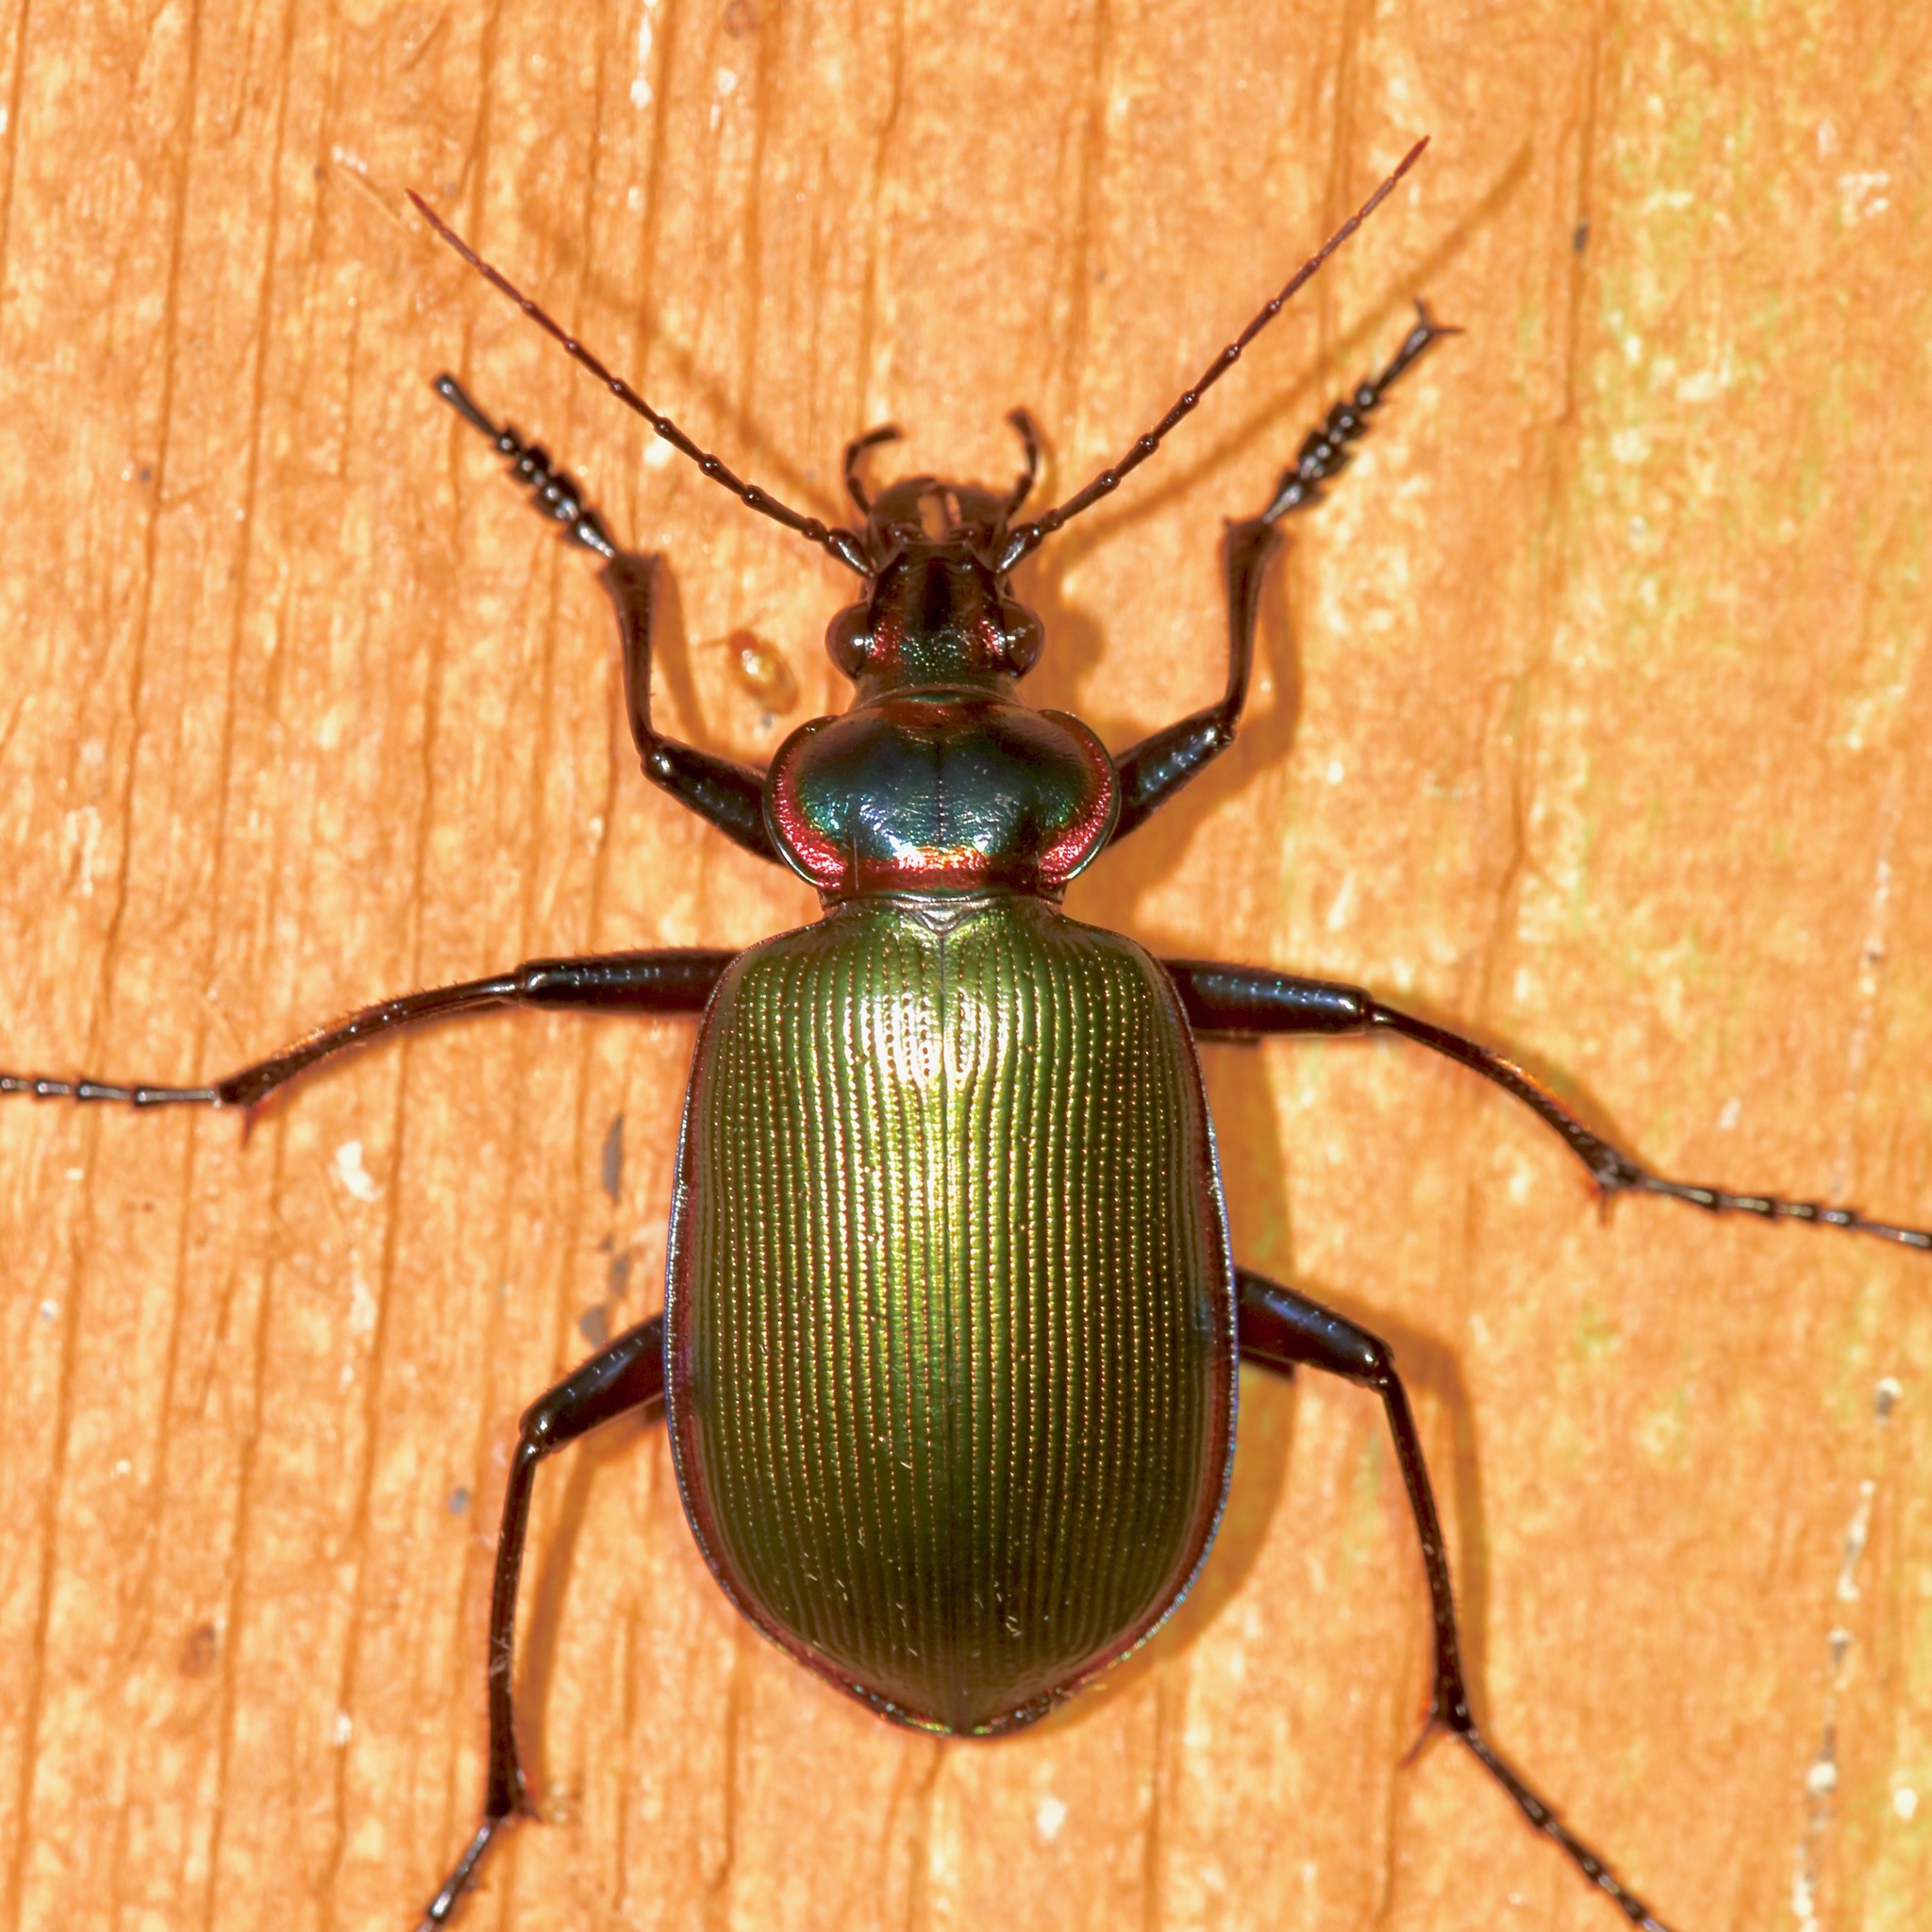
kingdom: Animalia
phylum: Arthropoda
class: Insecta
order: Coleoptera
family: Carabidae
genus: Calosoma
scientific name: Calosoma scrutator
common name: Fiery searcher beetle
